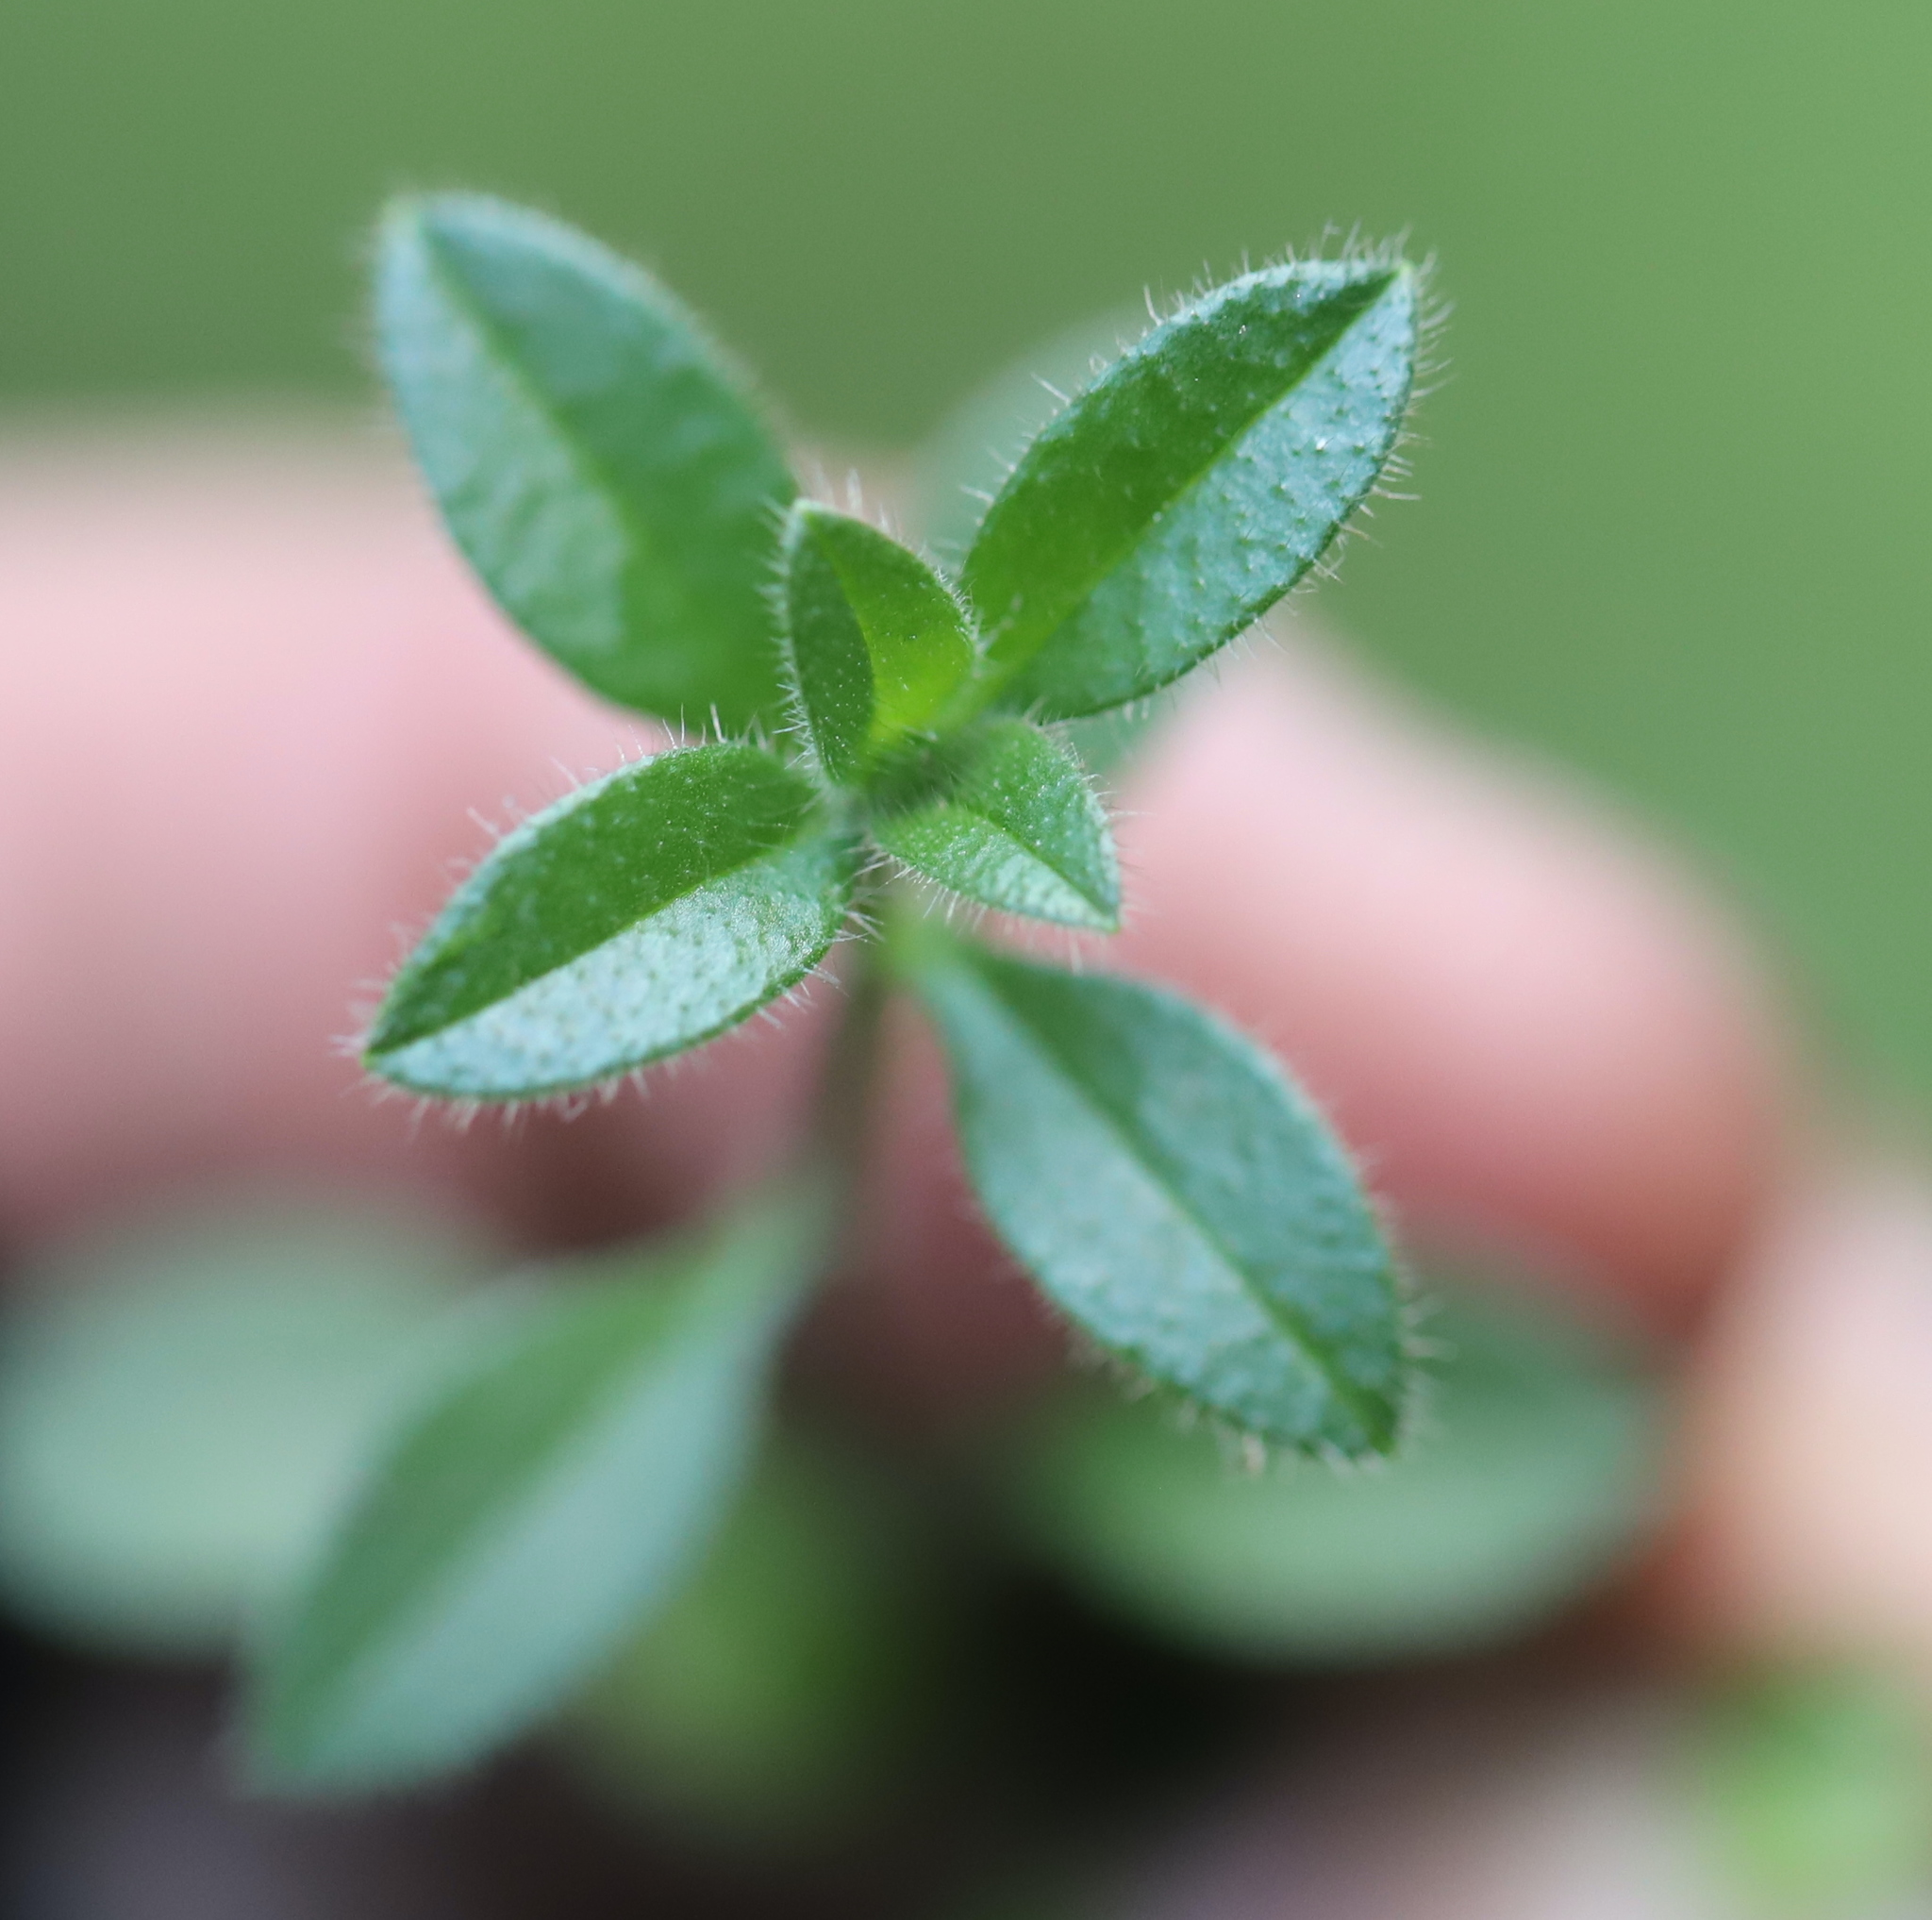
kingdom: Plantae
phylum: Tracheophyta
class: Magnoliopsida
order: Caryophyllales
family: Caryophyllaceae
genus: Cerastium
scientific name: Cerastium fontanum
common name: Common mouse-ear
